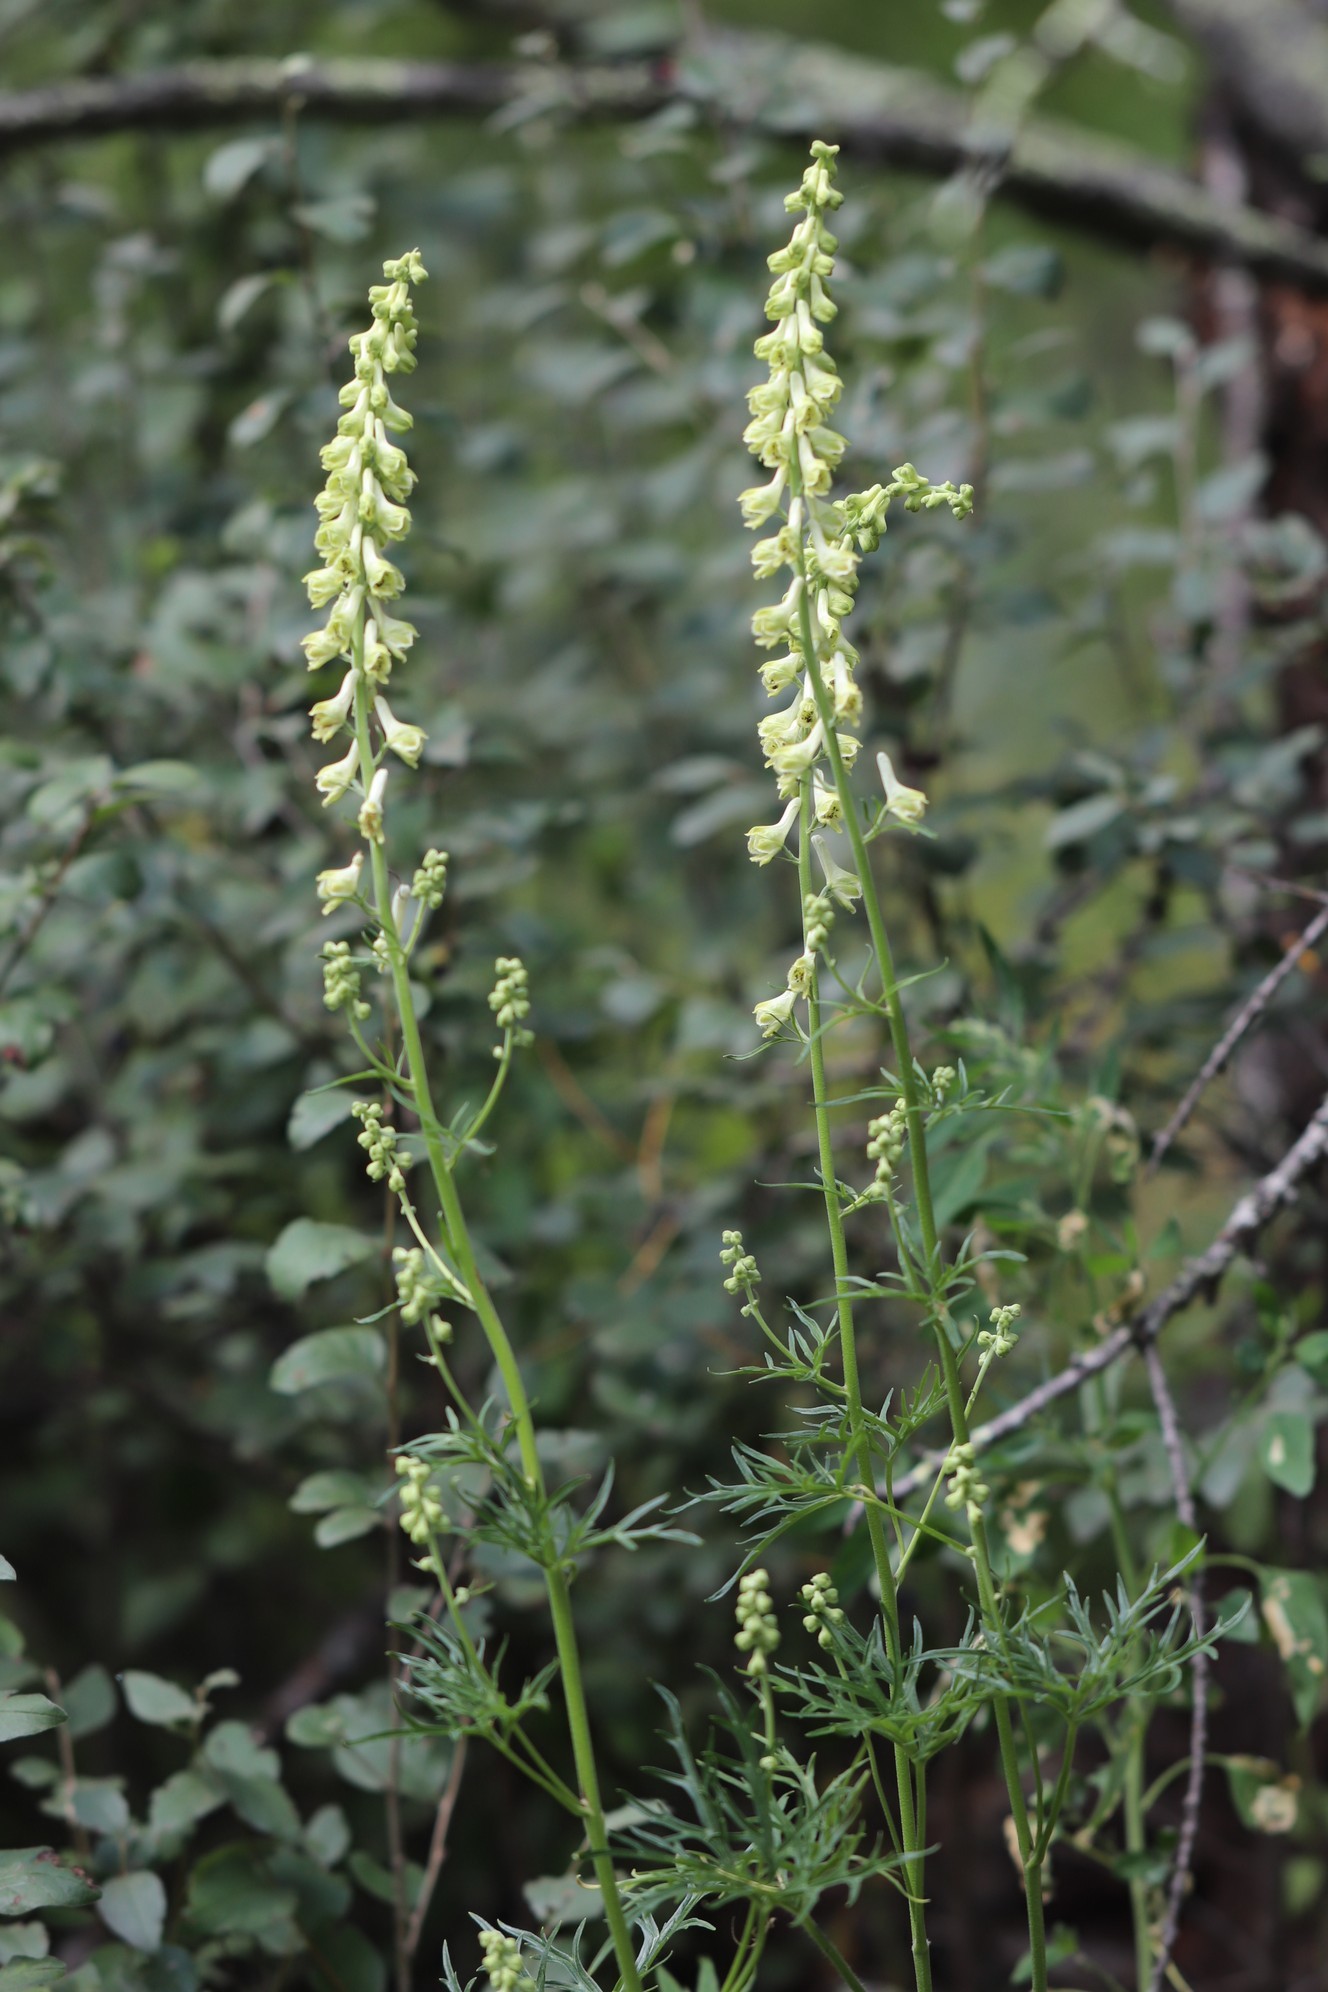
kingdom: Plantae
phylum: Tracheophyta
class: Magnoliopsida
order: Ranunculales
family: Ranunculaceae
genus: Aconitum
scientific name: Aconitum barbatum
